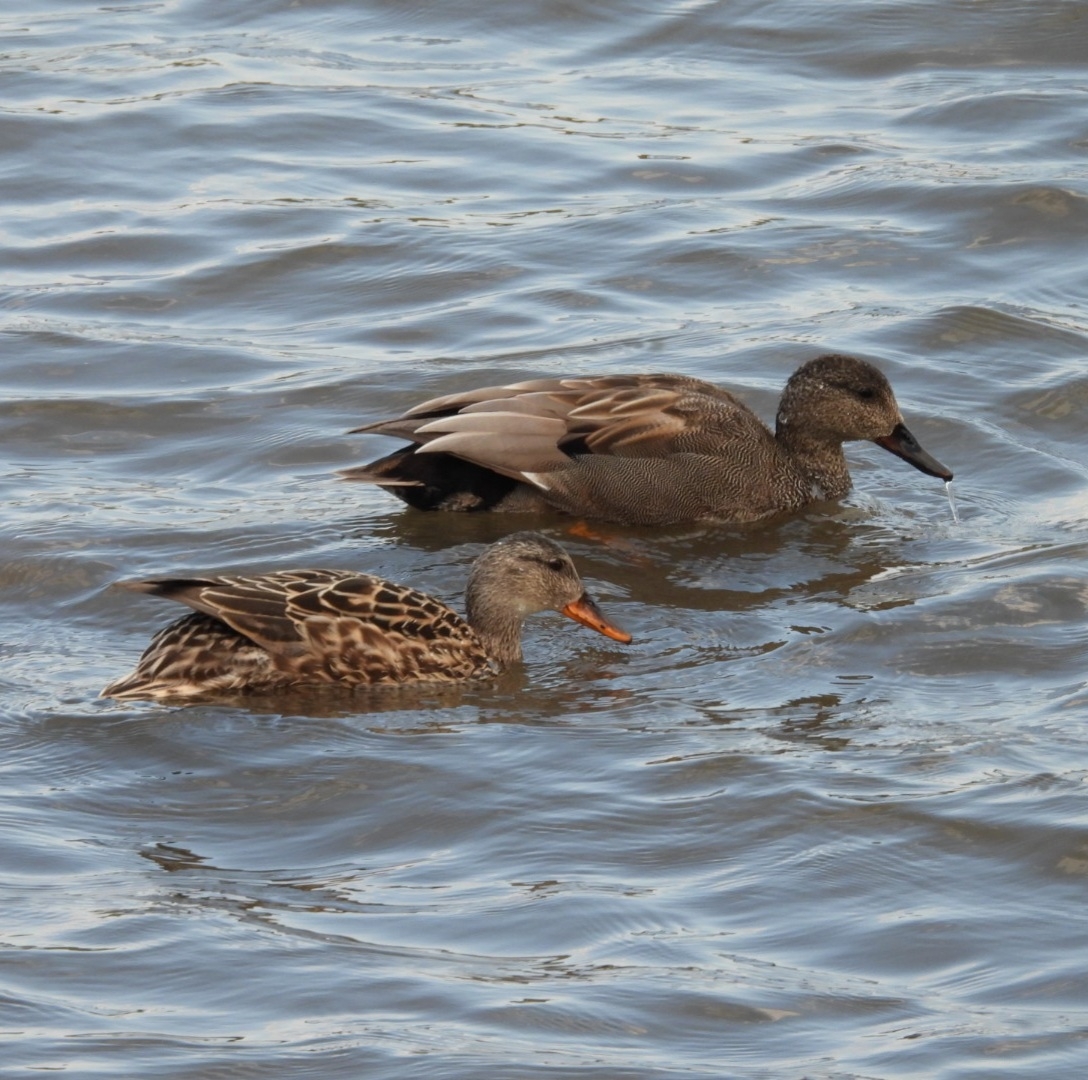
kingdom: Animalia
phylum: Chordata
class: Aves
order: Anseriformes
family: Anatidae
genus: Mareca
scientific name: Mareca strepera
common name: Gadwall
